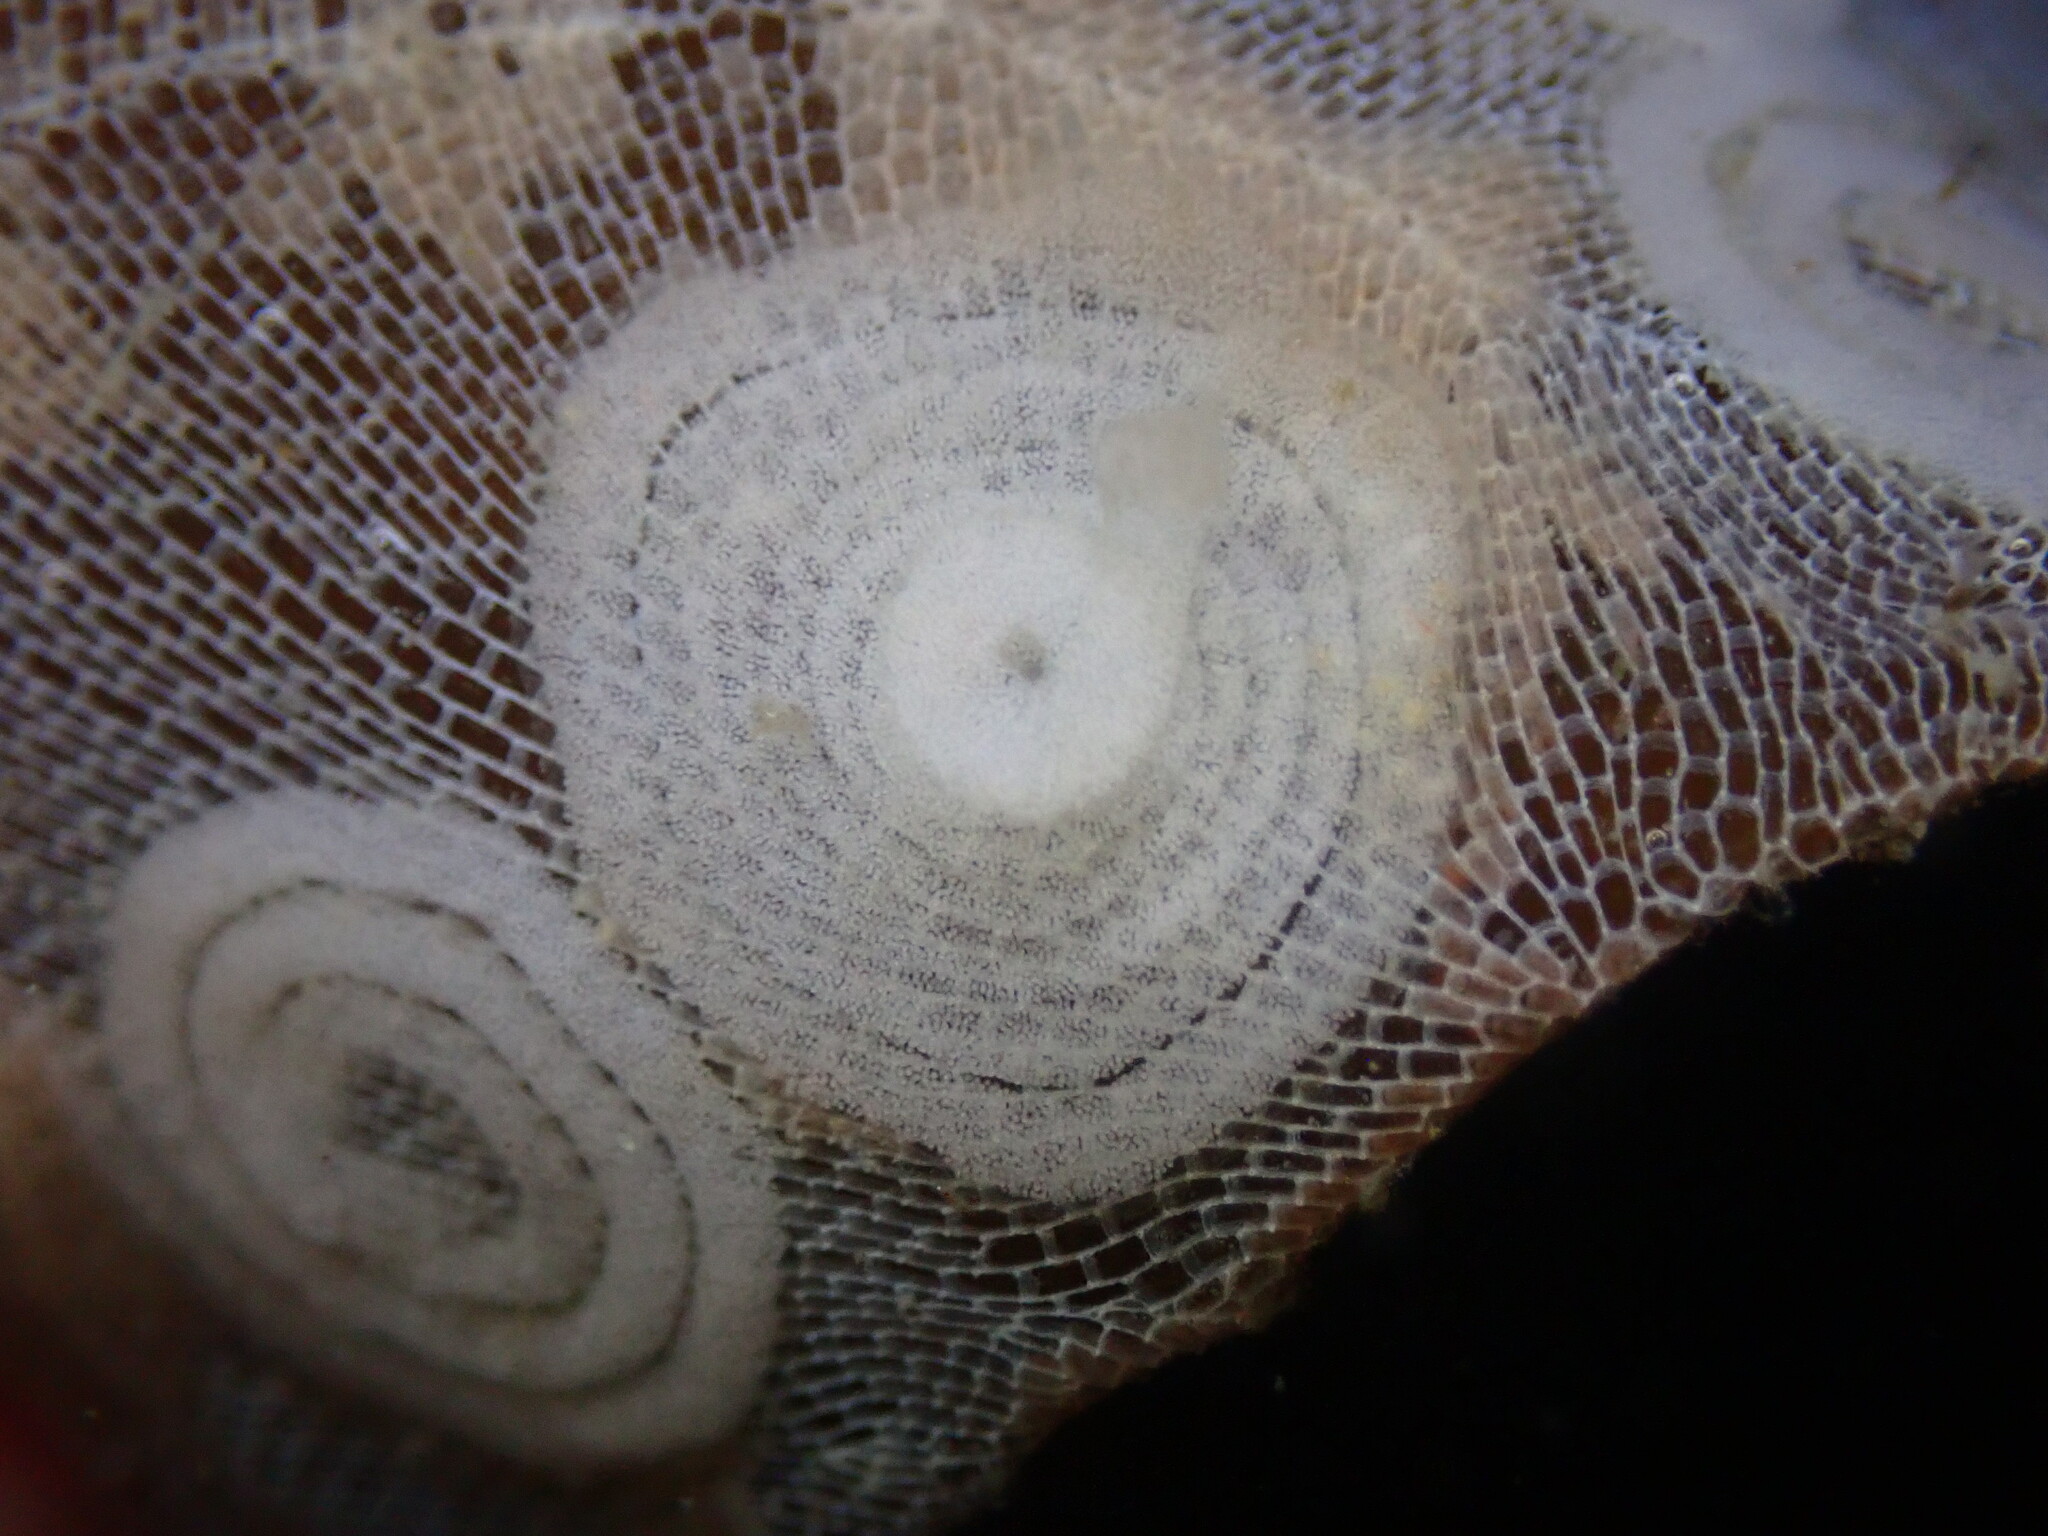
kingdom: Animalia
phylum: Mollusca
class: Gastropoda
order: Nudibranchia
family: Corambidae
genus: Corambe
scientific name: Corambe pacifica
